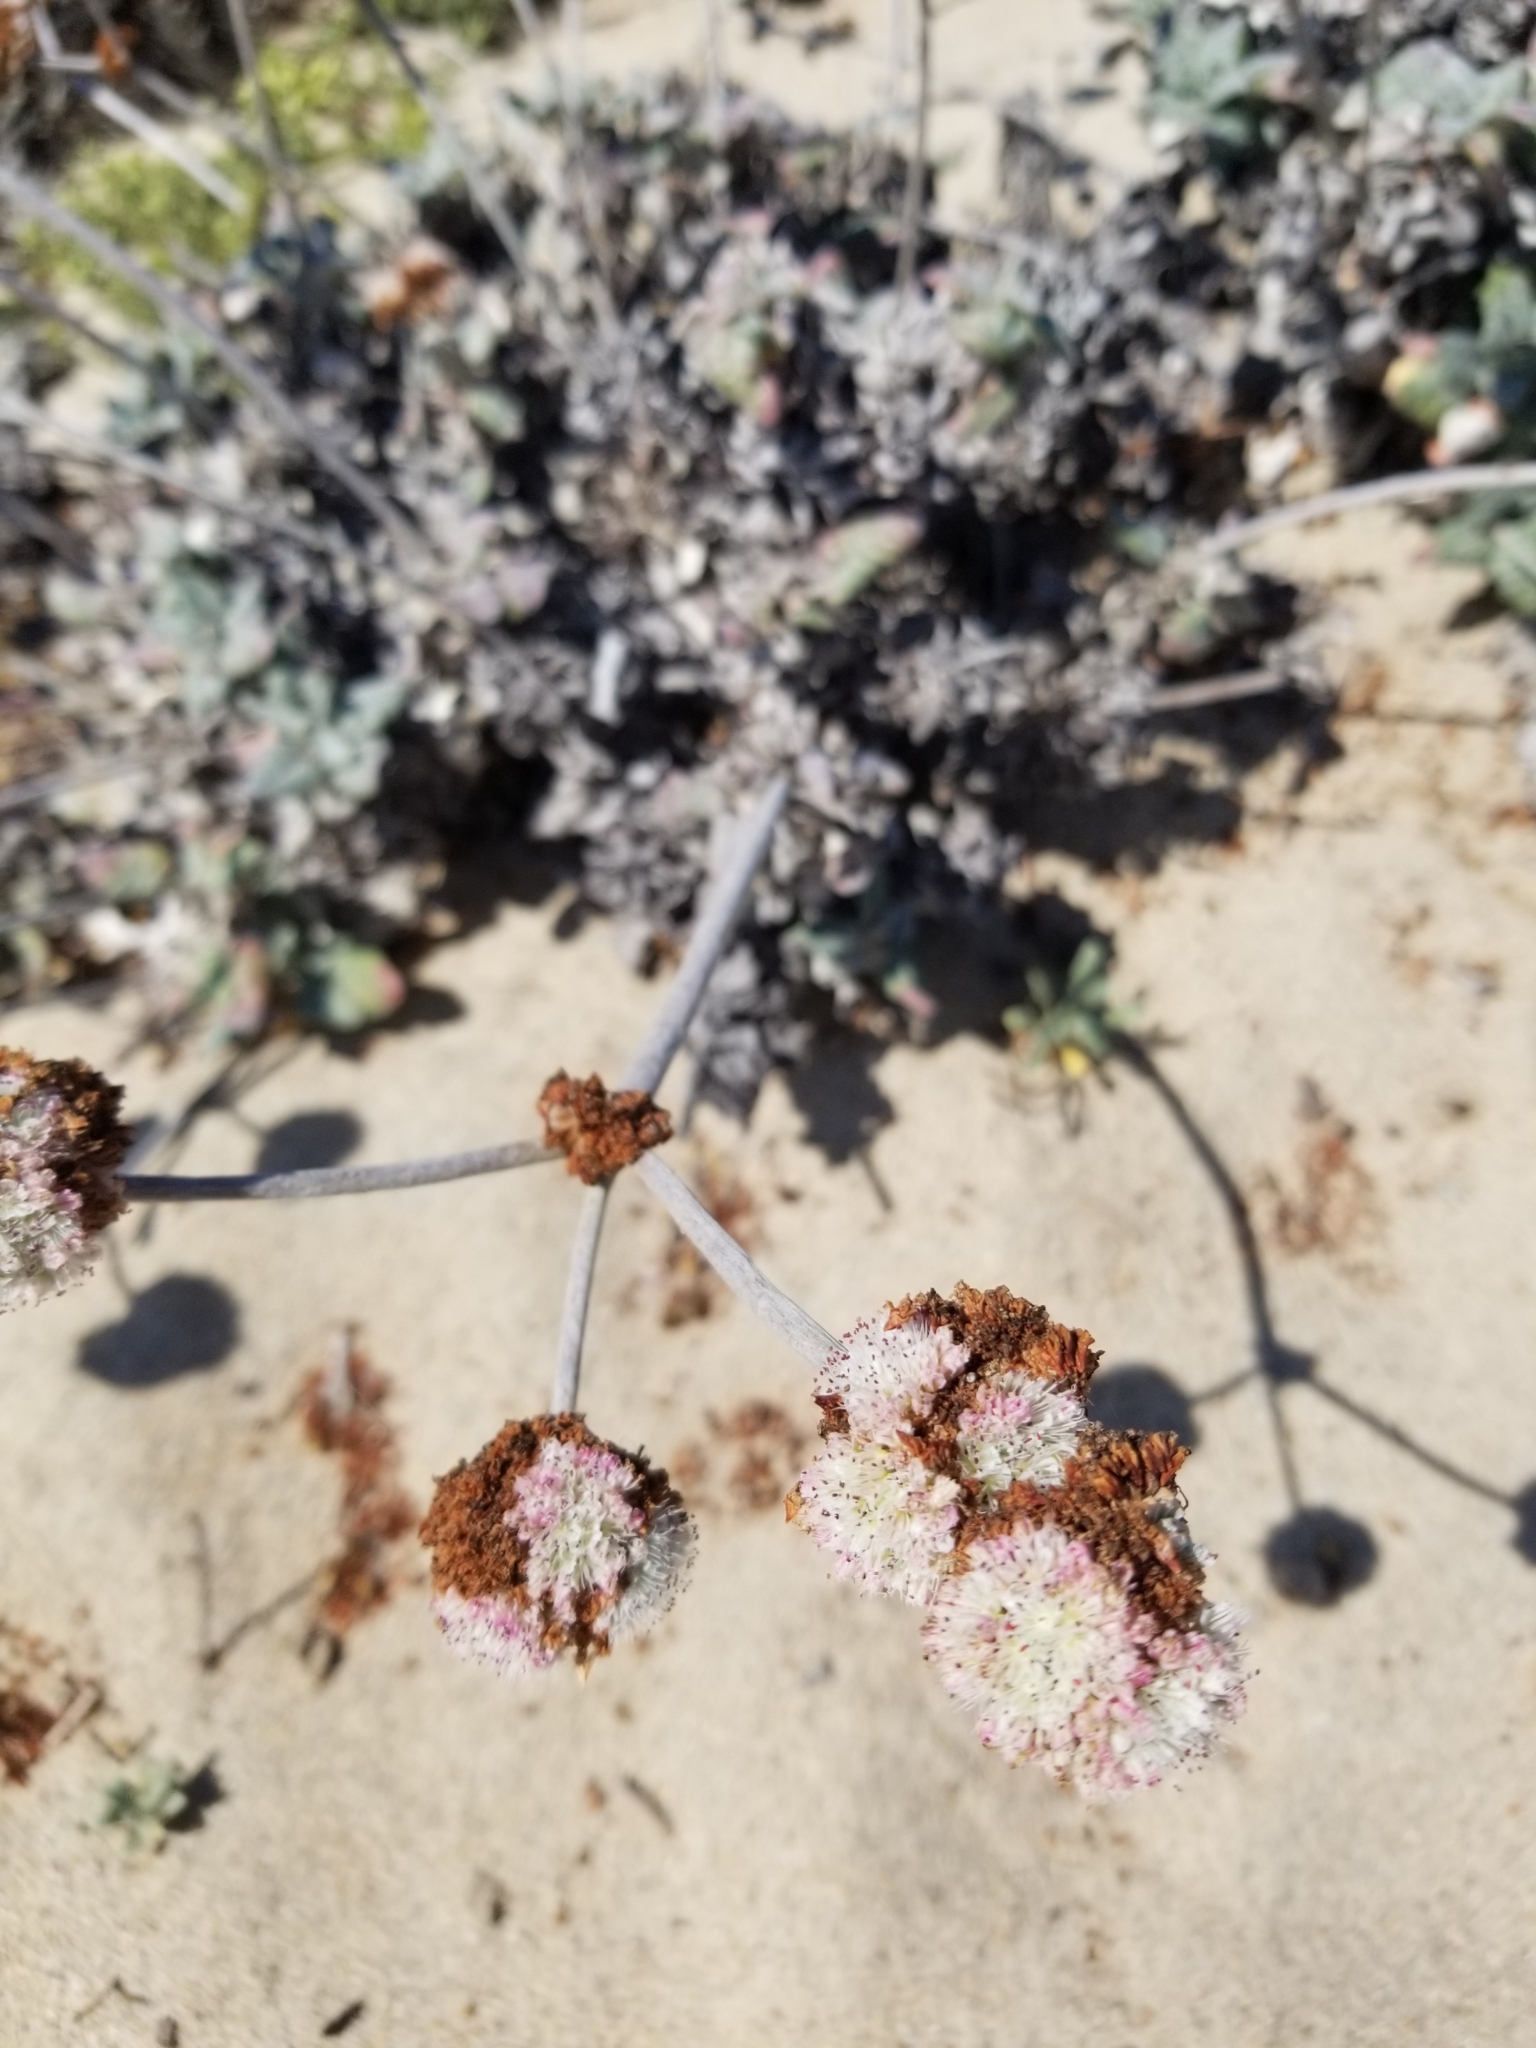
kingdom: Plantae
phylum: Tracheophyta
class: Magnoliopsida
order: Caryophyllales
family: Polygonaceae
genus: Eriogonum
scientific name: Eriogonum latifolium
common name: Seaside wild buckwheat
